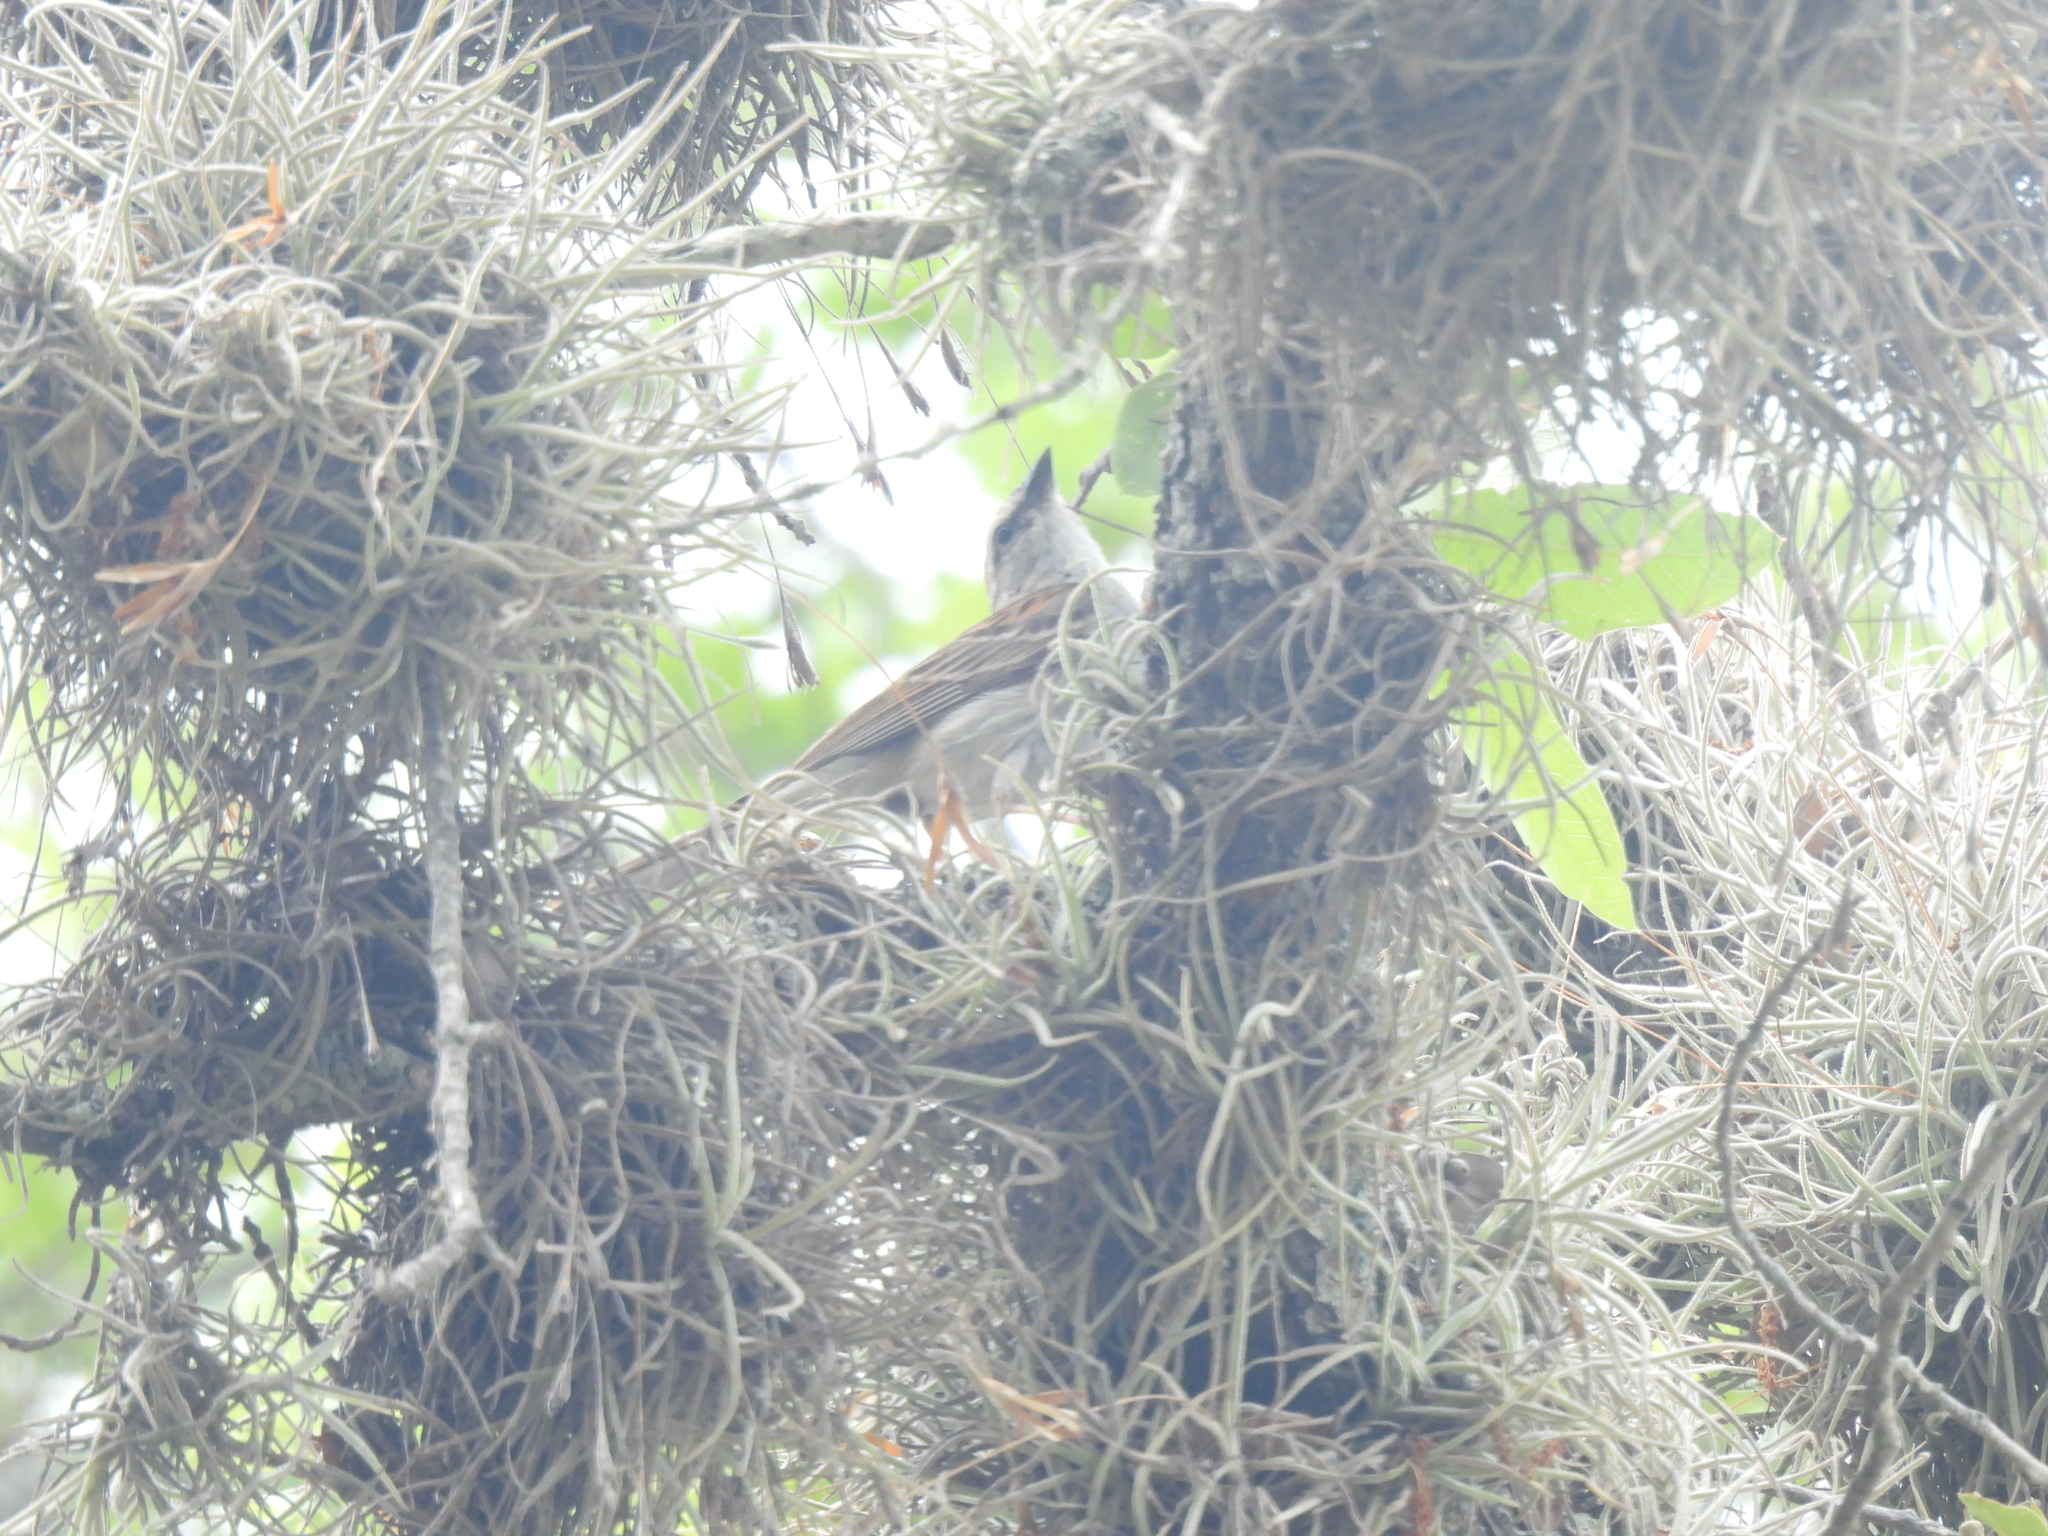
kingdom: Animalia
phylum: Chordata
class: Aves
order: Passeriformes
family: Passerellidae
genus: Spizella
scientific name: Spizella passerina
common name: Chipping sparrow
